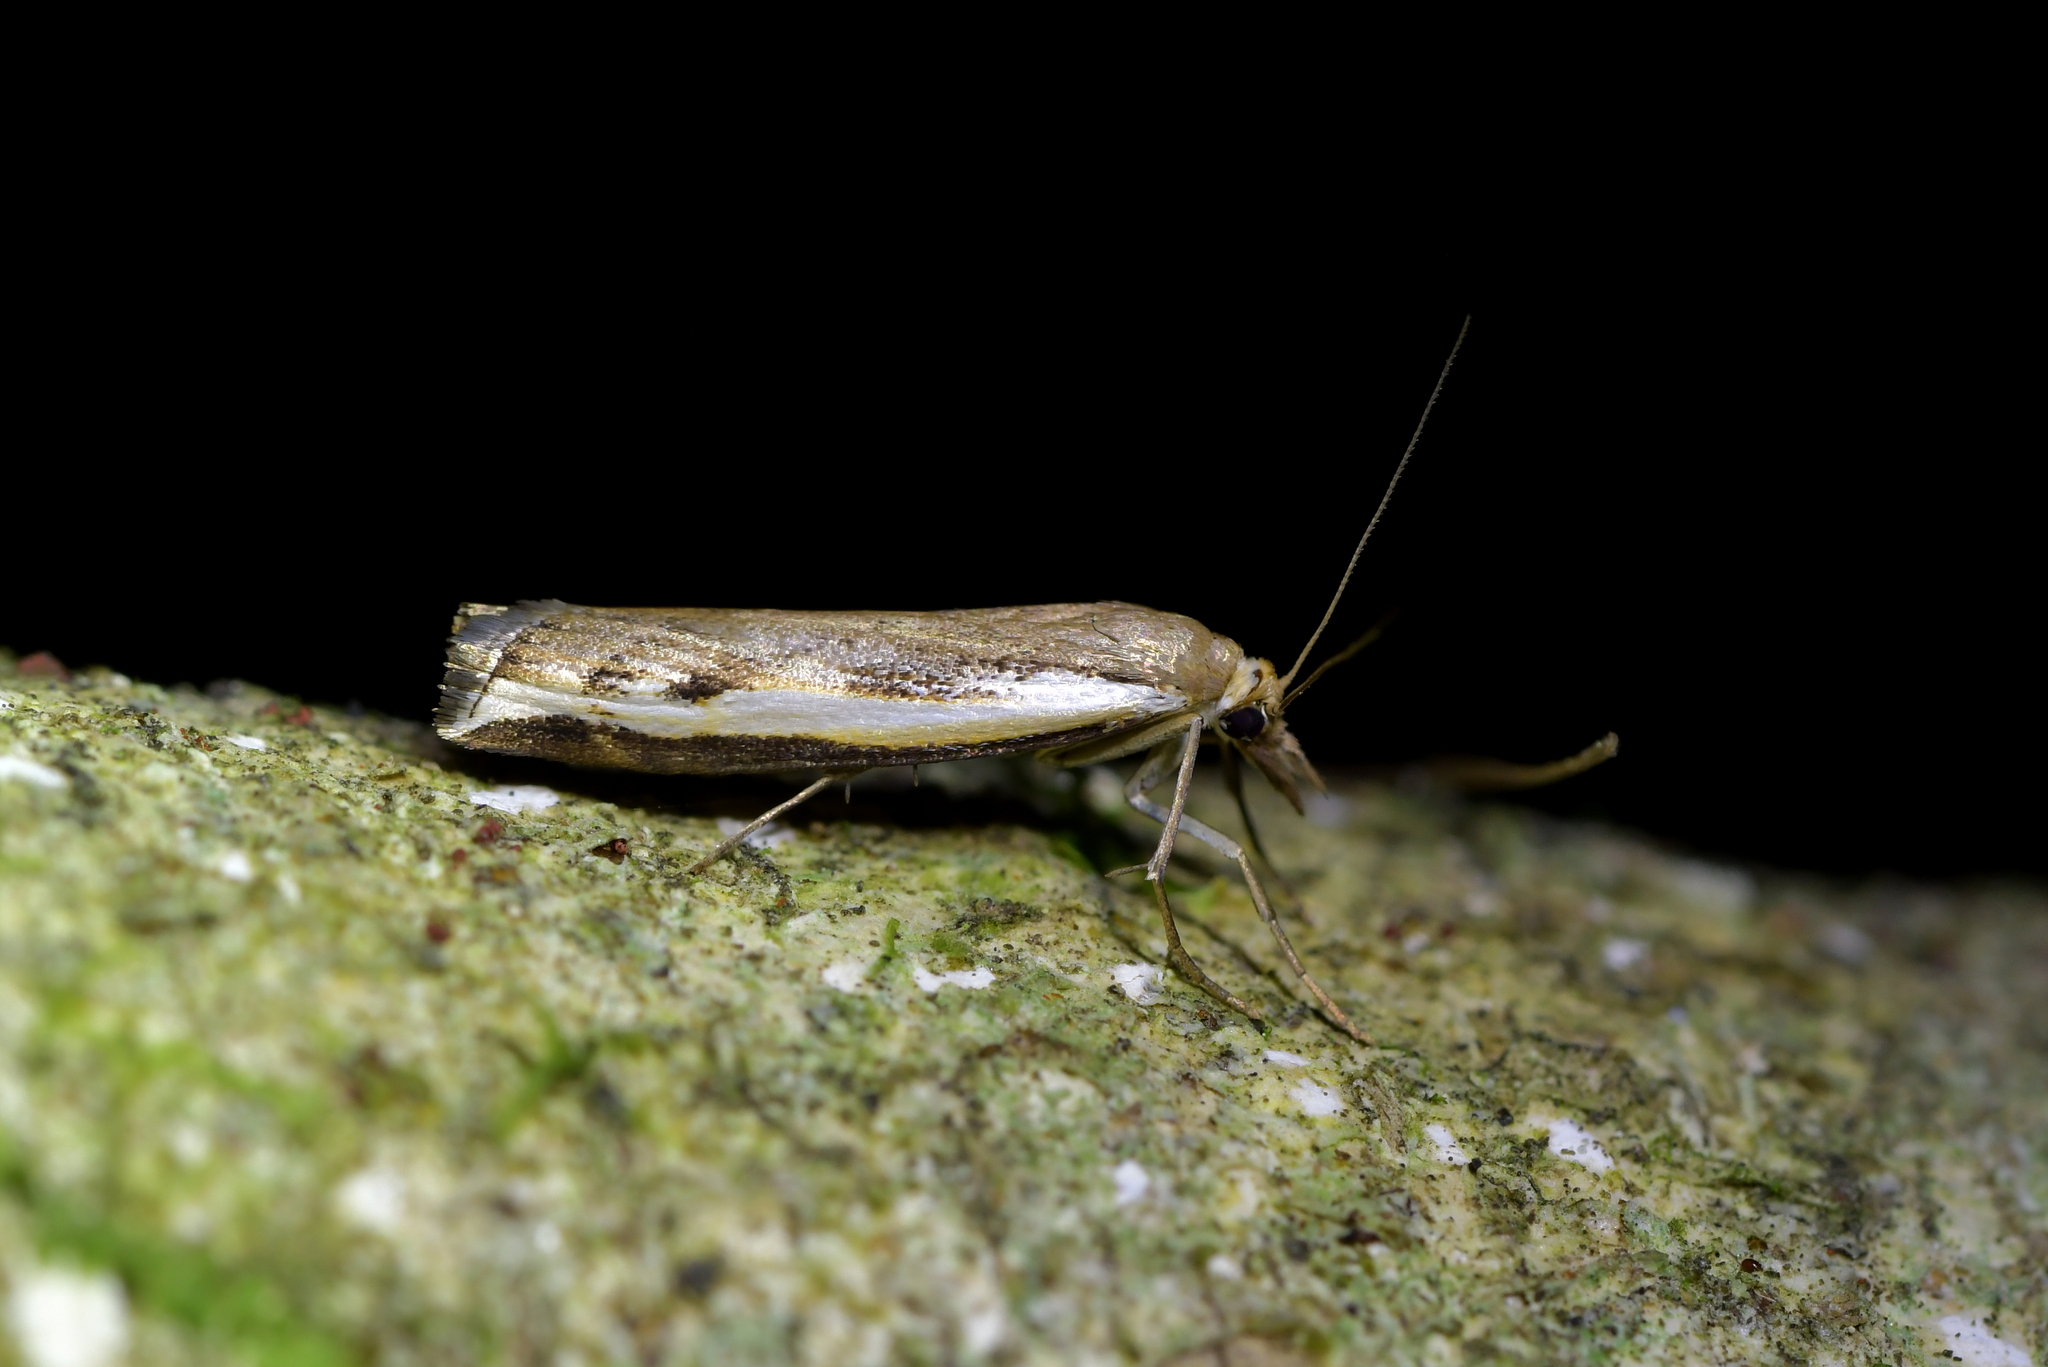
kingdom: Animalia
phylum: Arthropoda
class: Insecta
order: Lepidoptera
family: Crambidae
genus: Orocrambus
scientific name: Orocrambus flexuosellus
